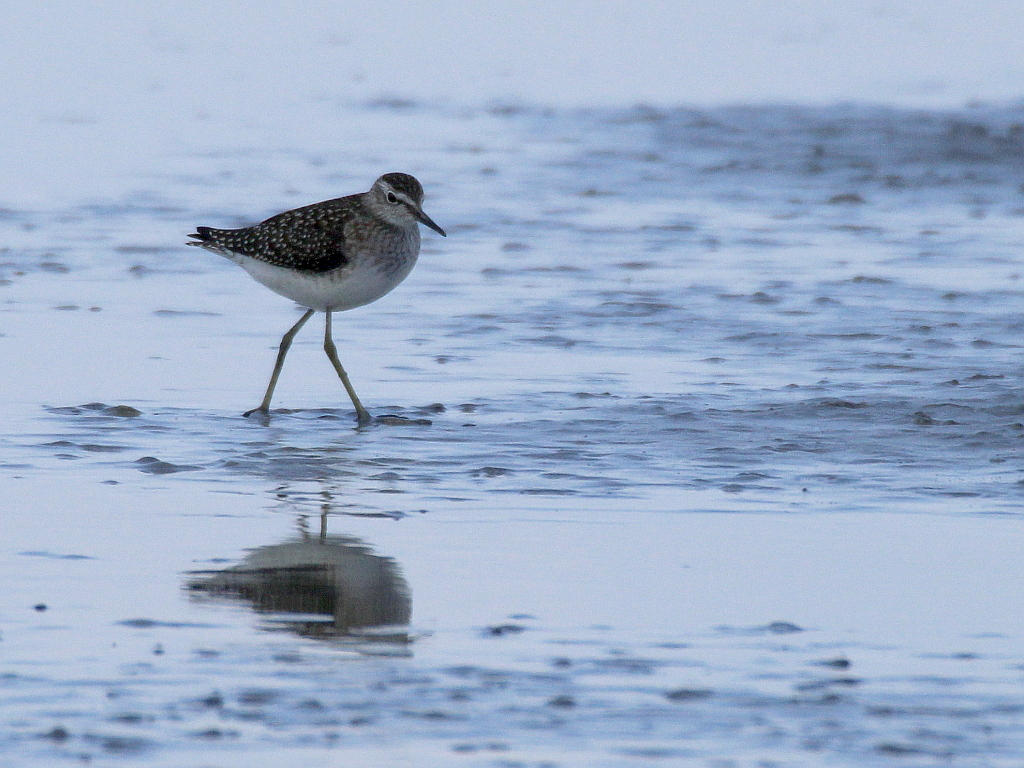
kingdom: Animalia
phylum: Chordata
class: Aves
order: Charadriiformes
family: Scolopacidae
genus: Tringa
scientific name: Tringa glareola
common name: Wood sandpiper
